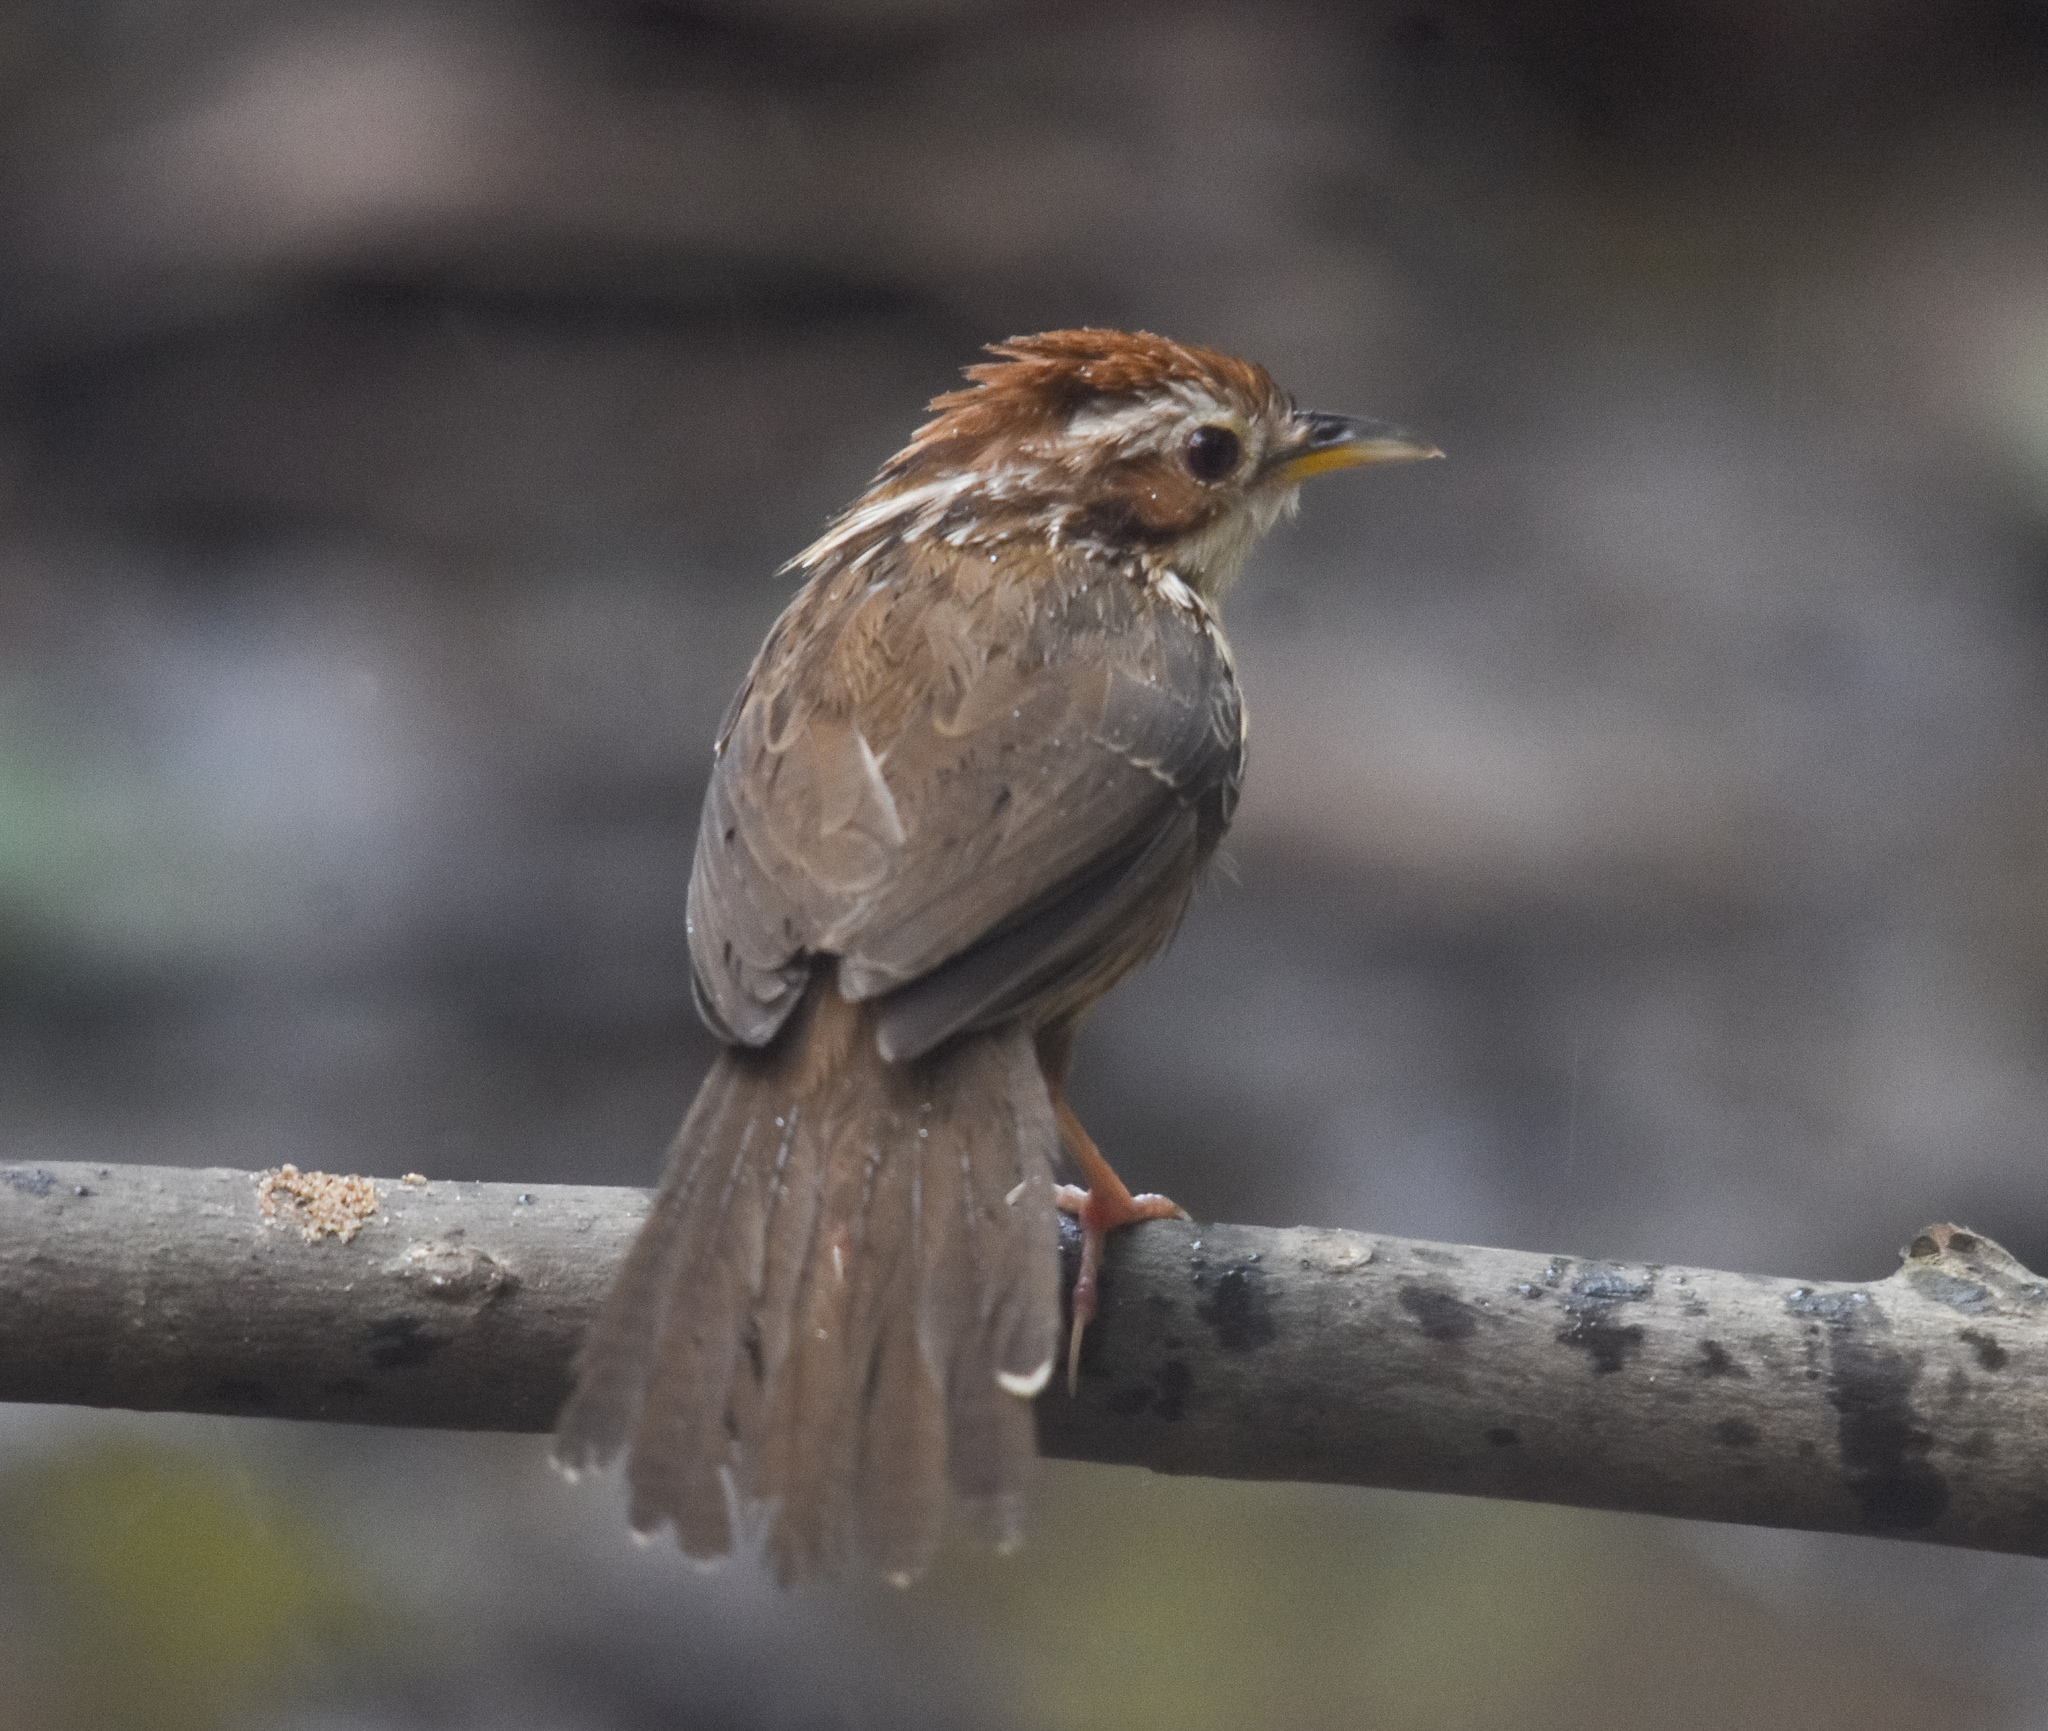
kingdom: Animalia
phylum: Chordata
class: Aves
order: Passeriformes
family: Pellorneidae
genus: Pellorneum
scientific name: Pellorneum ruficeps
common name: Puff-throated babbler
